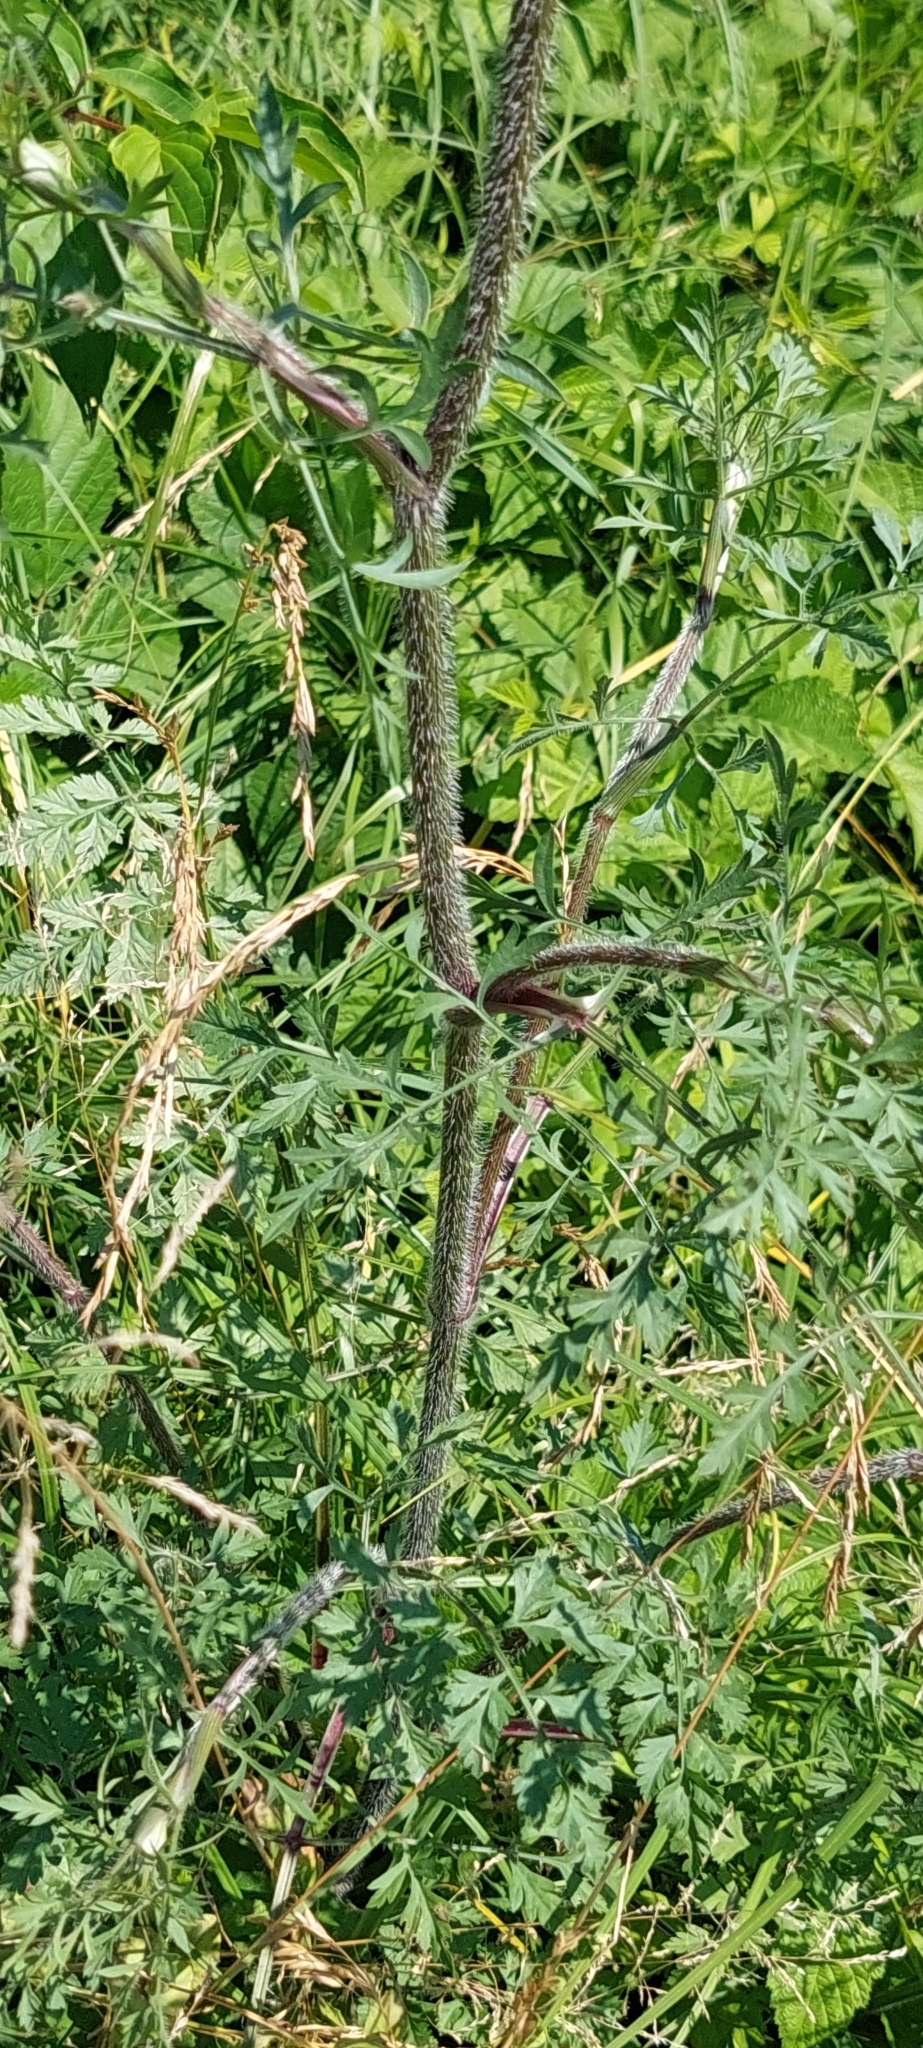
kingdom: Plantae
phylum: Tracheophyta
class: Magnoliopsida
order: Apiales
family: Apiaceae
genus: Daucus
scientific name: Daucus carota
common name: Wild carrot
